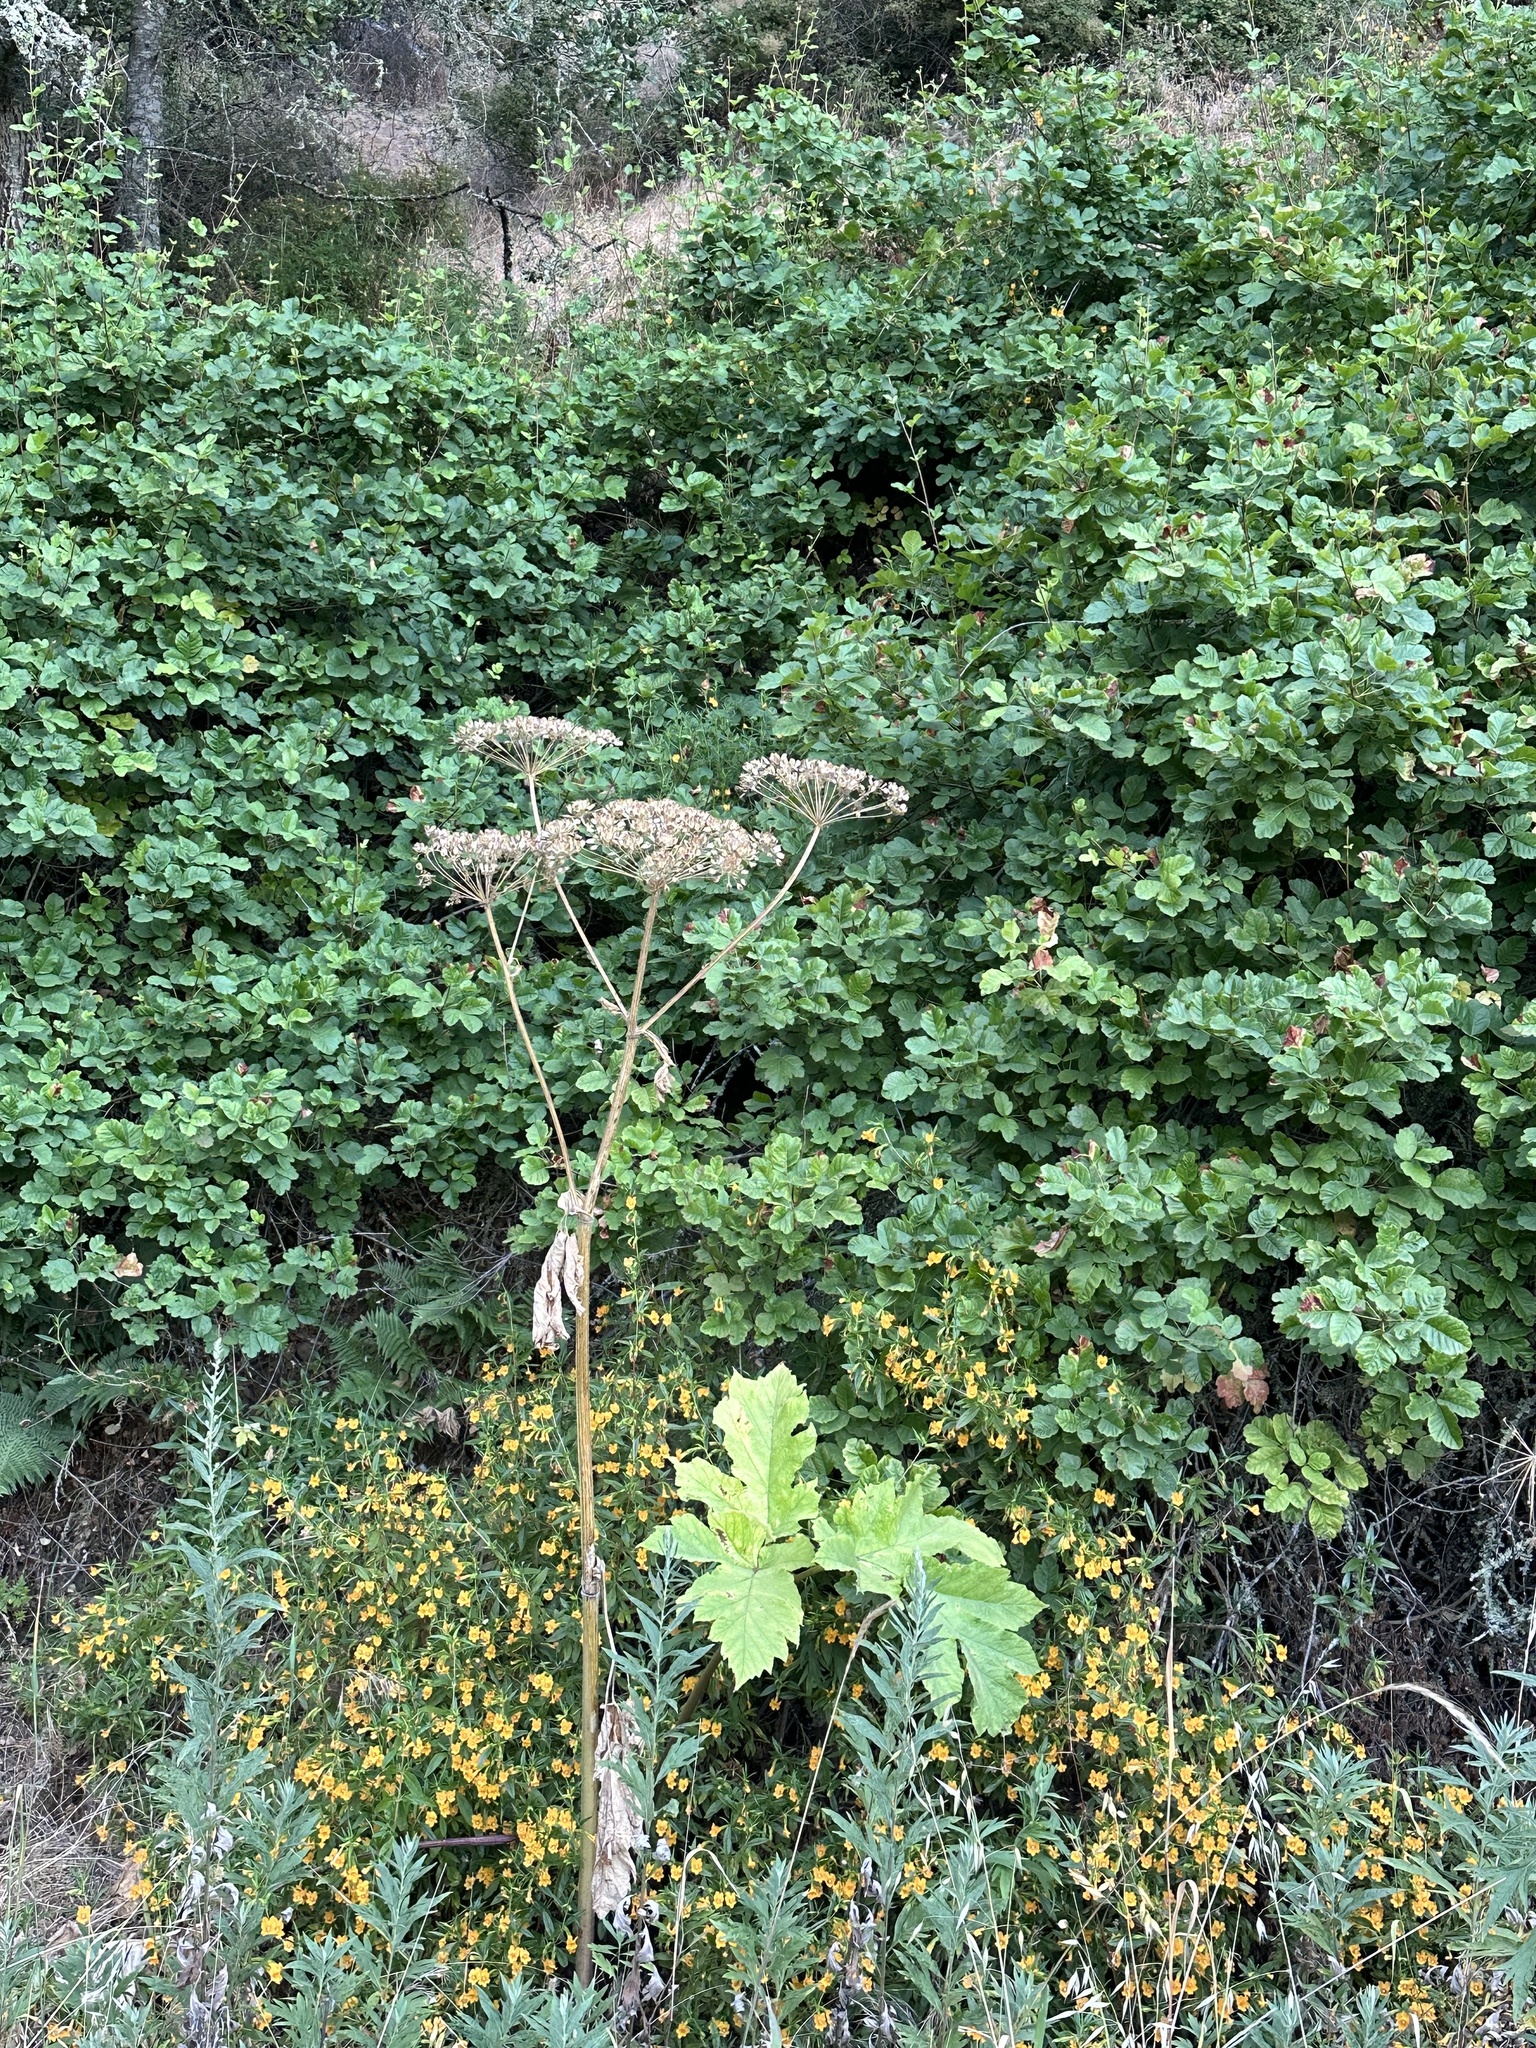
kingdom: Plantae
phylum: Tracheophyta
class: Magnoliopsida
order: Apiales
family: Apiaceae
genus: Heracleum
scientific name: Heracleum maximum
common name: American cow parsnip
